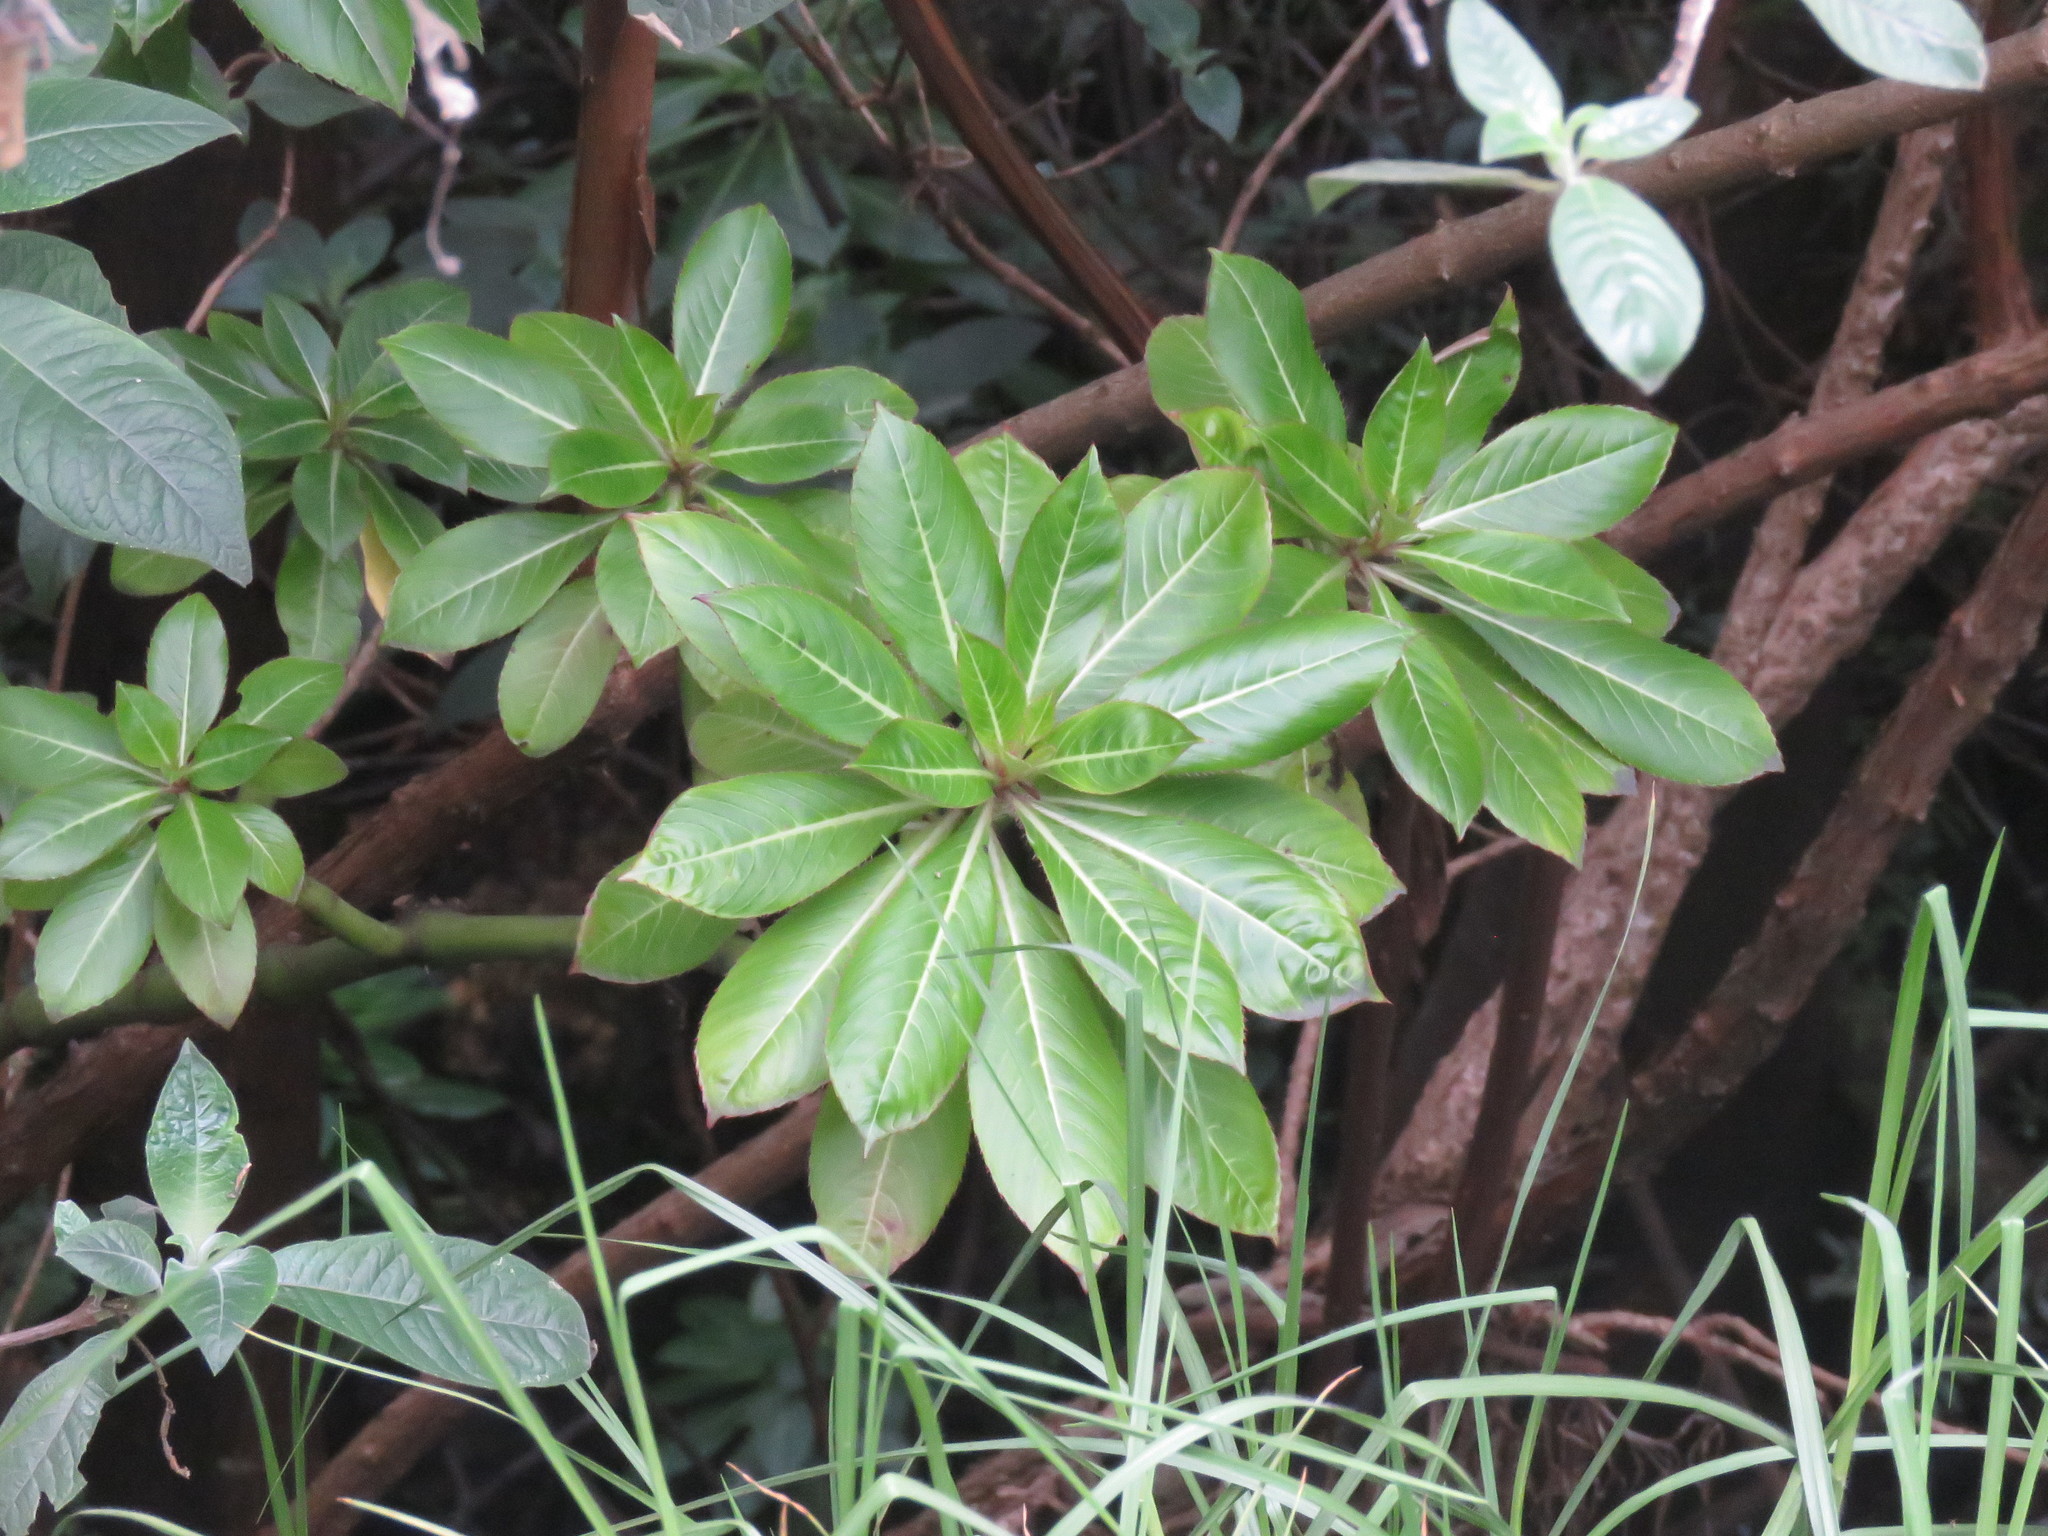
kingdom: Plantae
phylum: Tracheophyta
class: Magnoliopsida
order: Ericales
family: Balsaminaceae
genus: Impatiens
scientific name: Impatiens sodenii
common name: Oliver's touch-me-not
